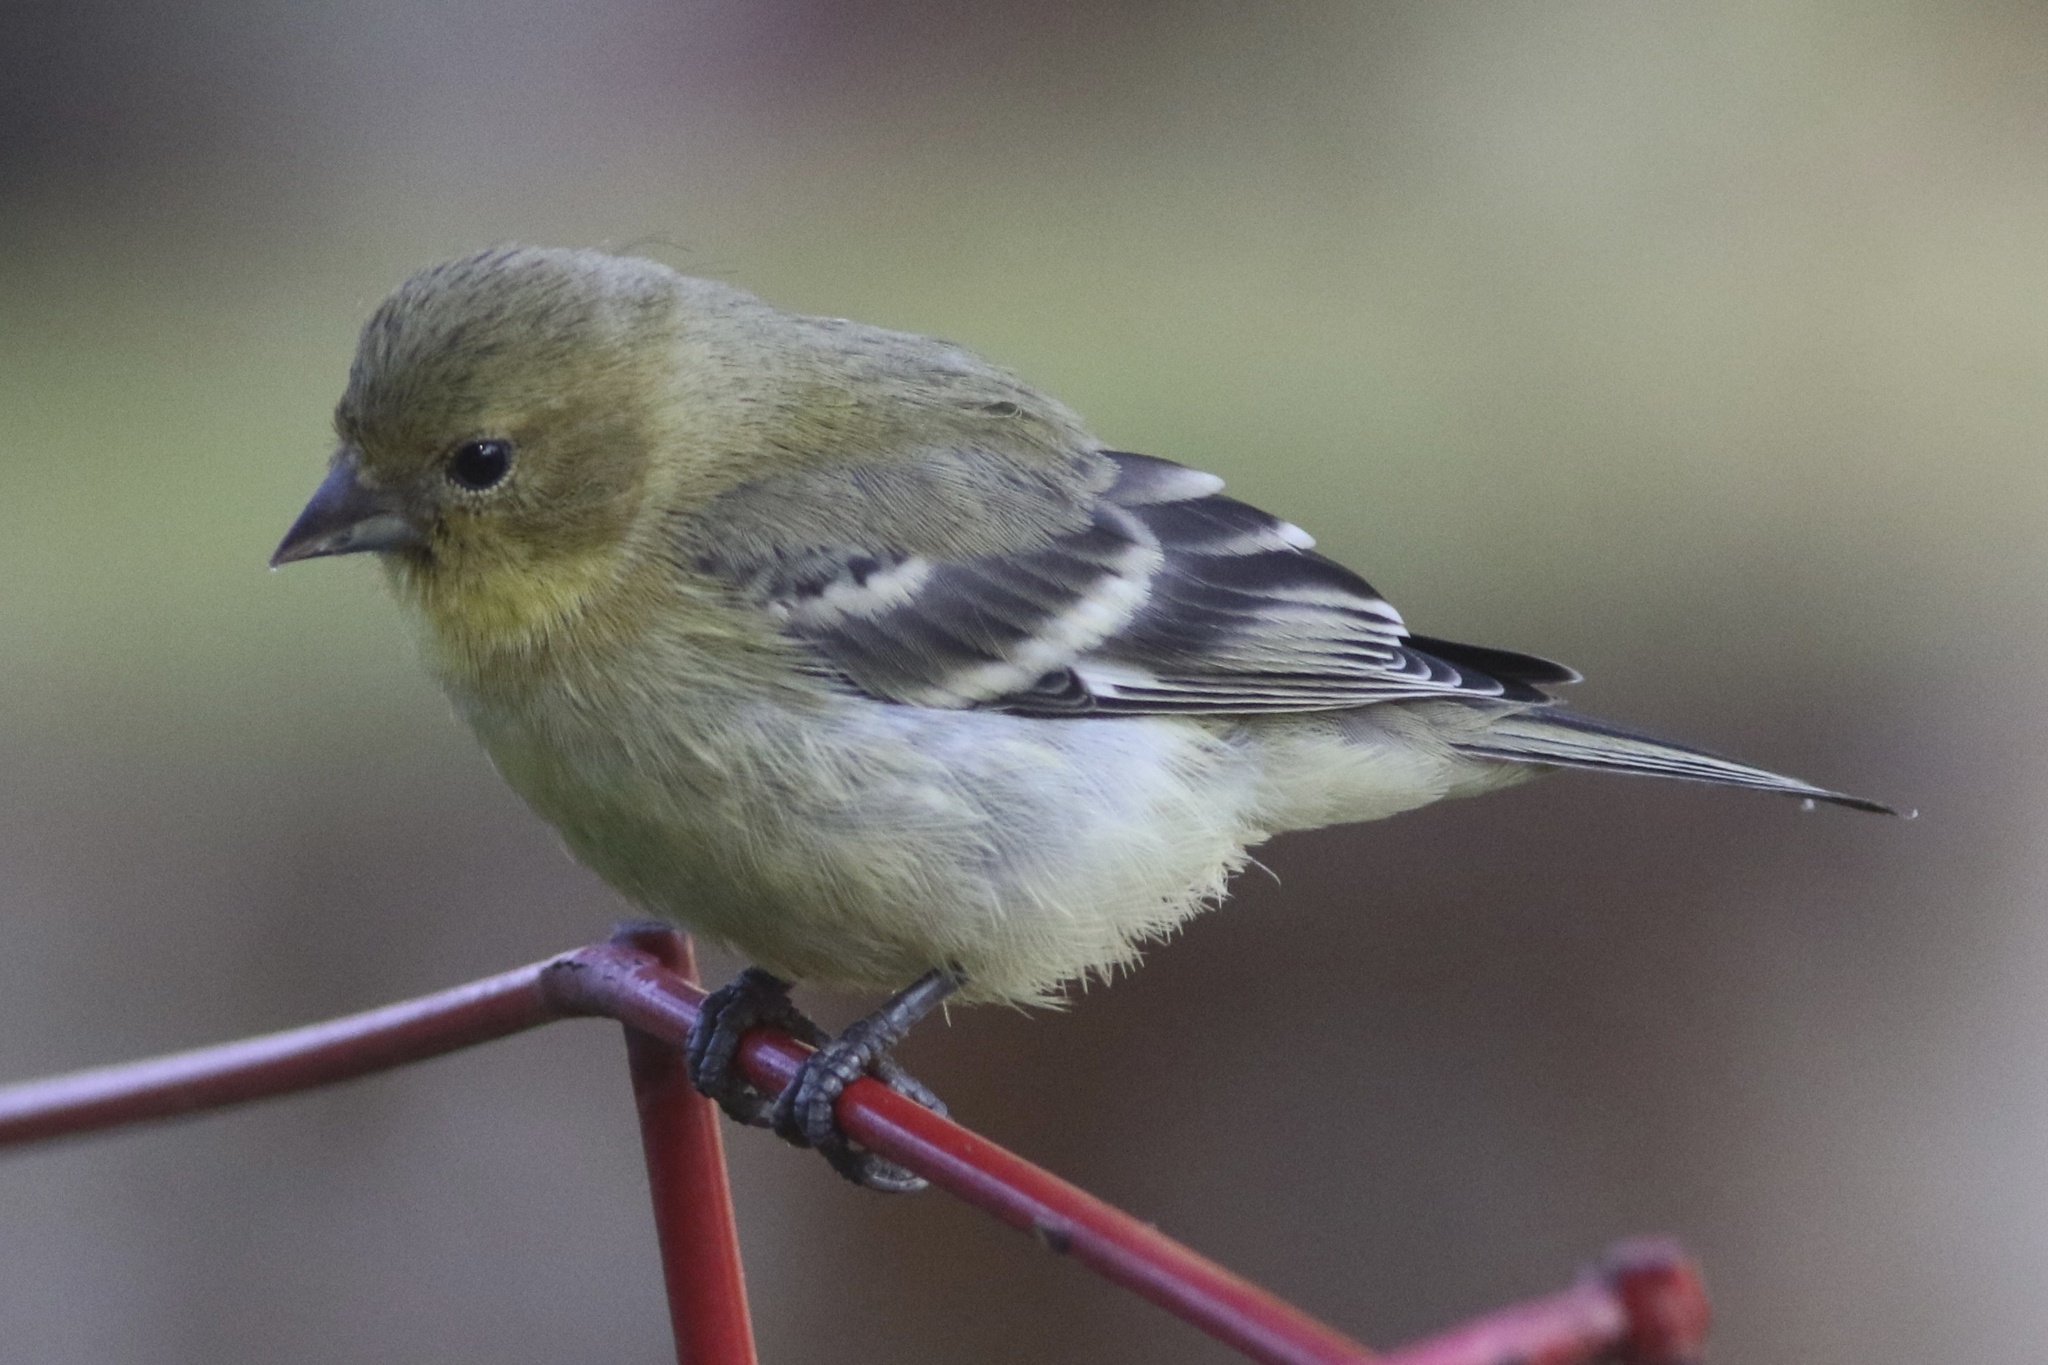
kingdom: Animalia
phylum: Chordata
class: Aves
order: Passeriformes
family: Fringillidae
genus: Spinus
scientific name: Spinus psaltria
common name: Lesser goldfinch
